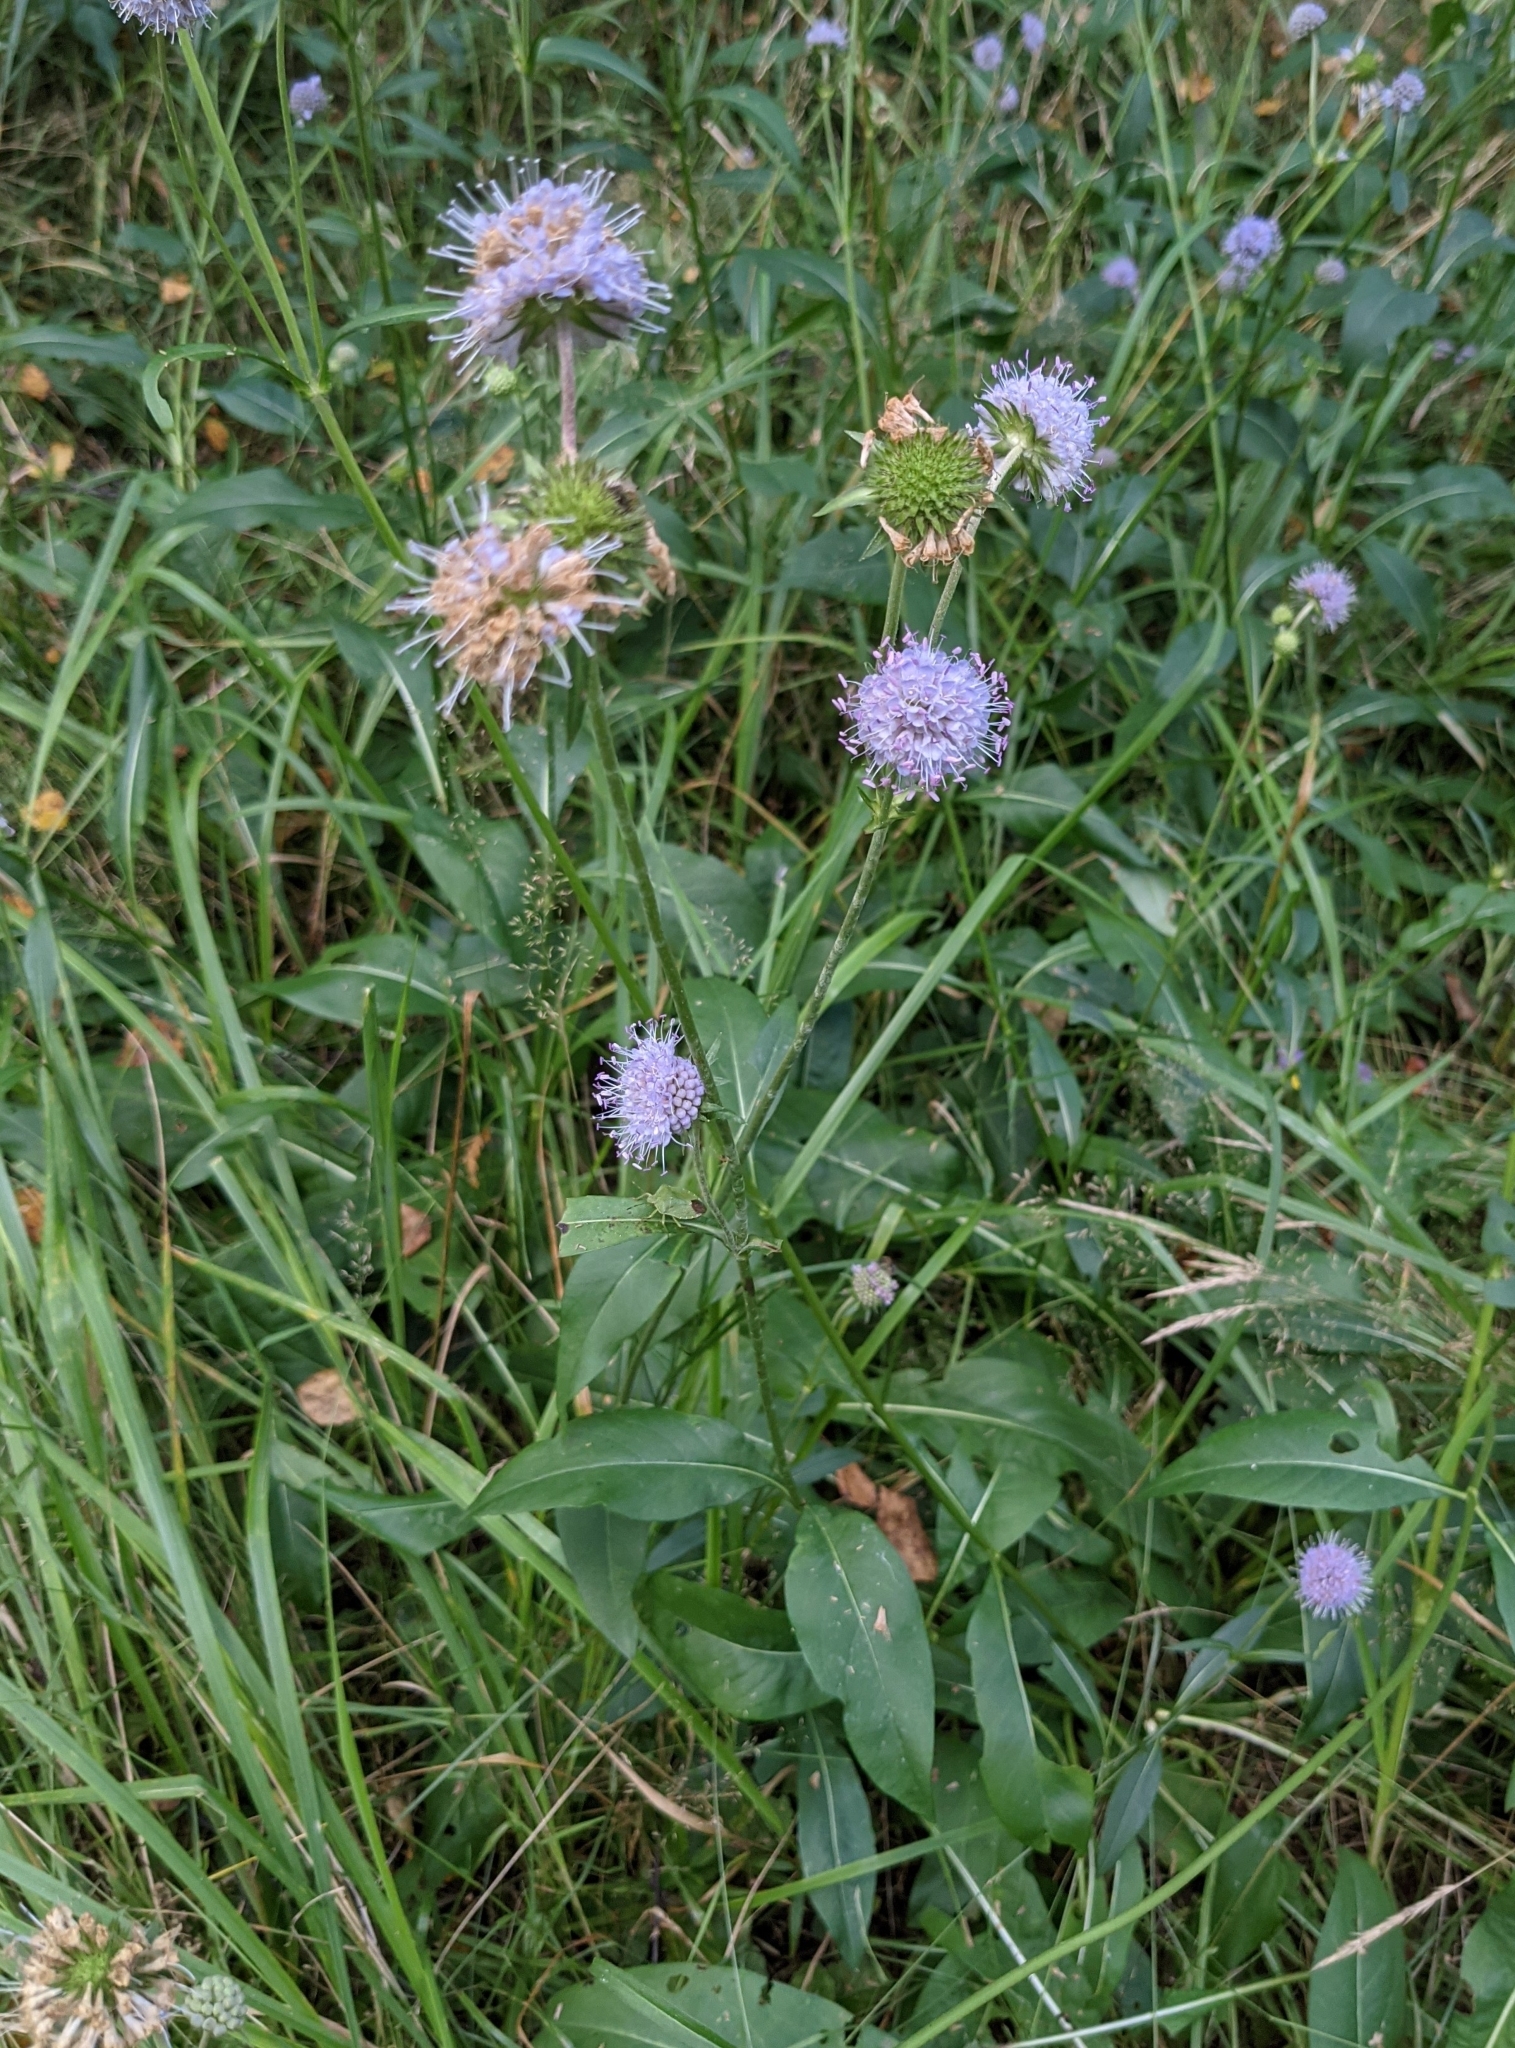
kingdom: Plantae
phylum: Tracheophyta
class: Magnoliopsida
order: Dipsacales
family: Caprifoliaceae
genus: Succisa
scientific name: Succisa pratensis
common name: Devil's-bit
